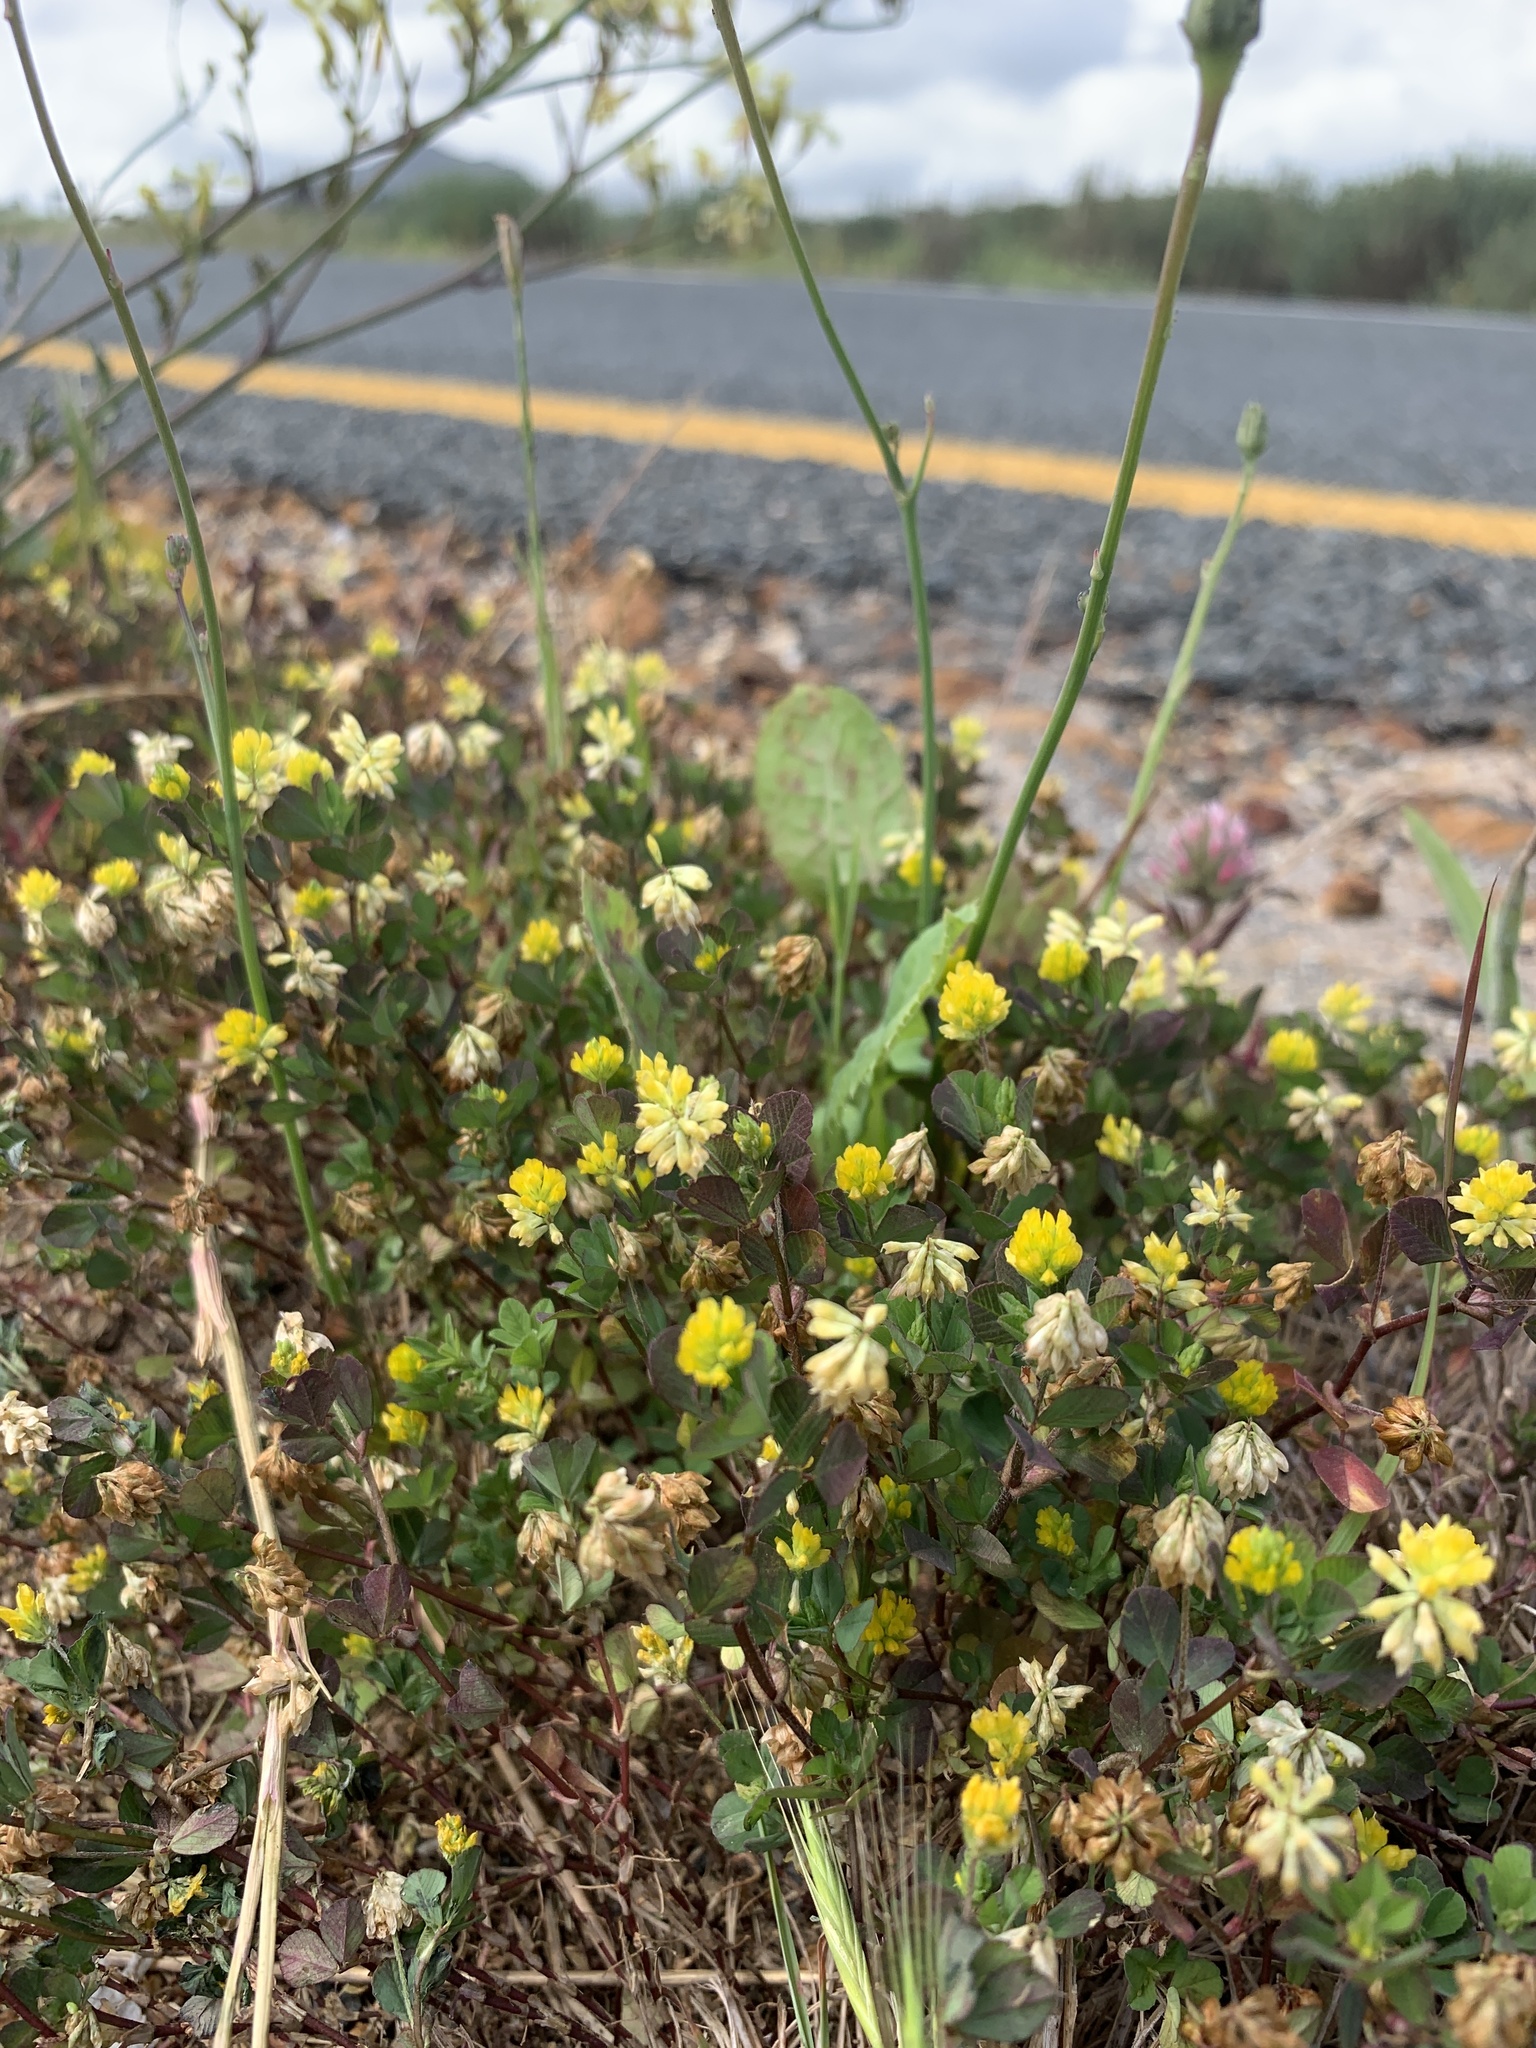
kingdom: Plantae
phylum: Tracheophyta
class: Magnoliopsida
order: Fabales
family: Fabaceae
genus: Trifolium
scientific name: Trifolium dubium
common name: Suckling clover
